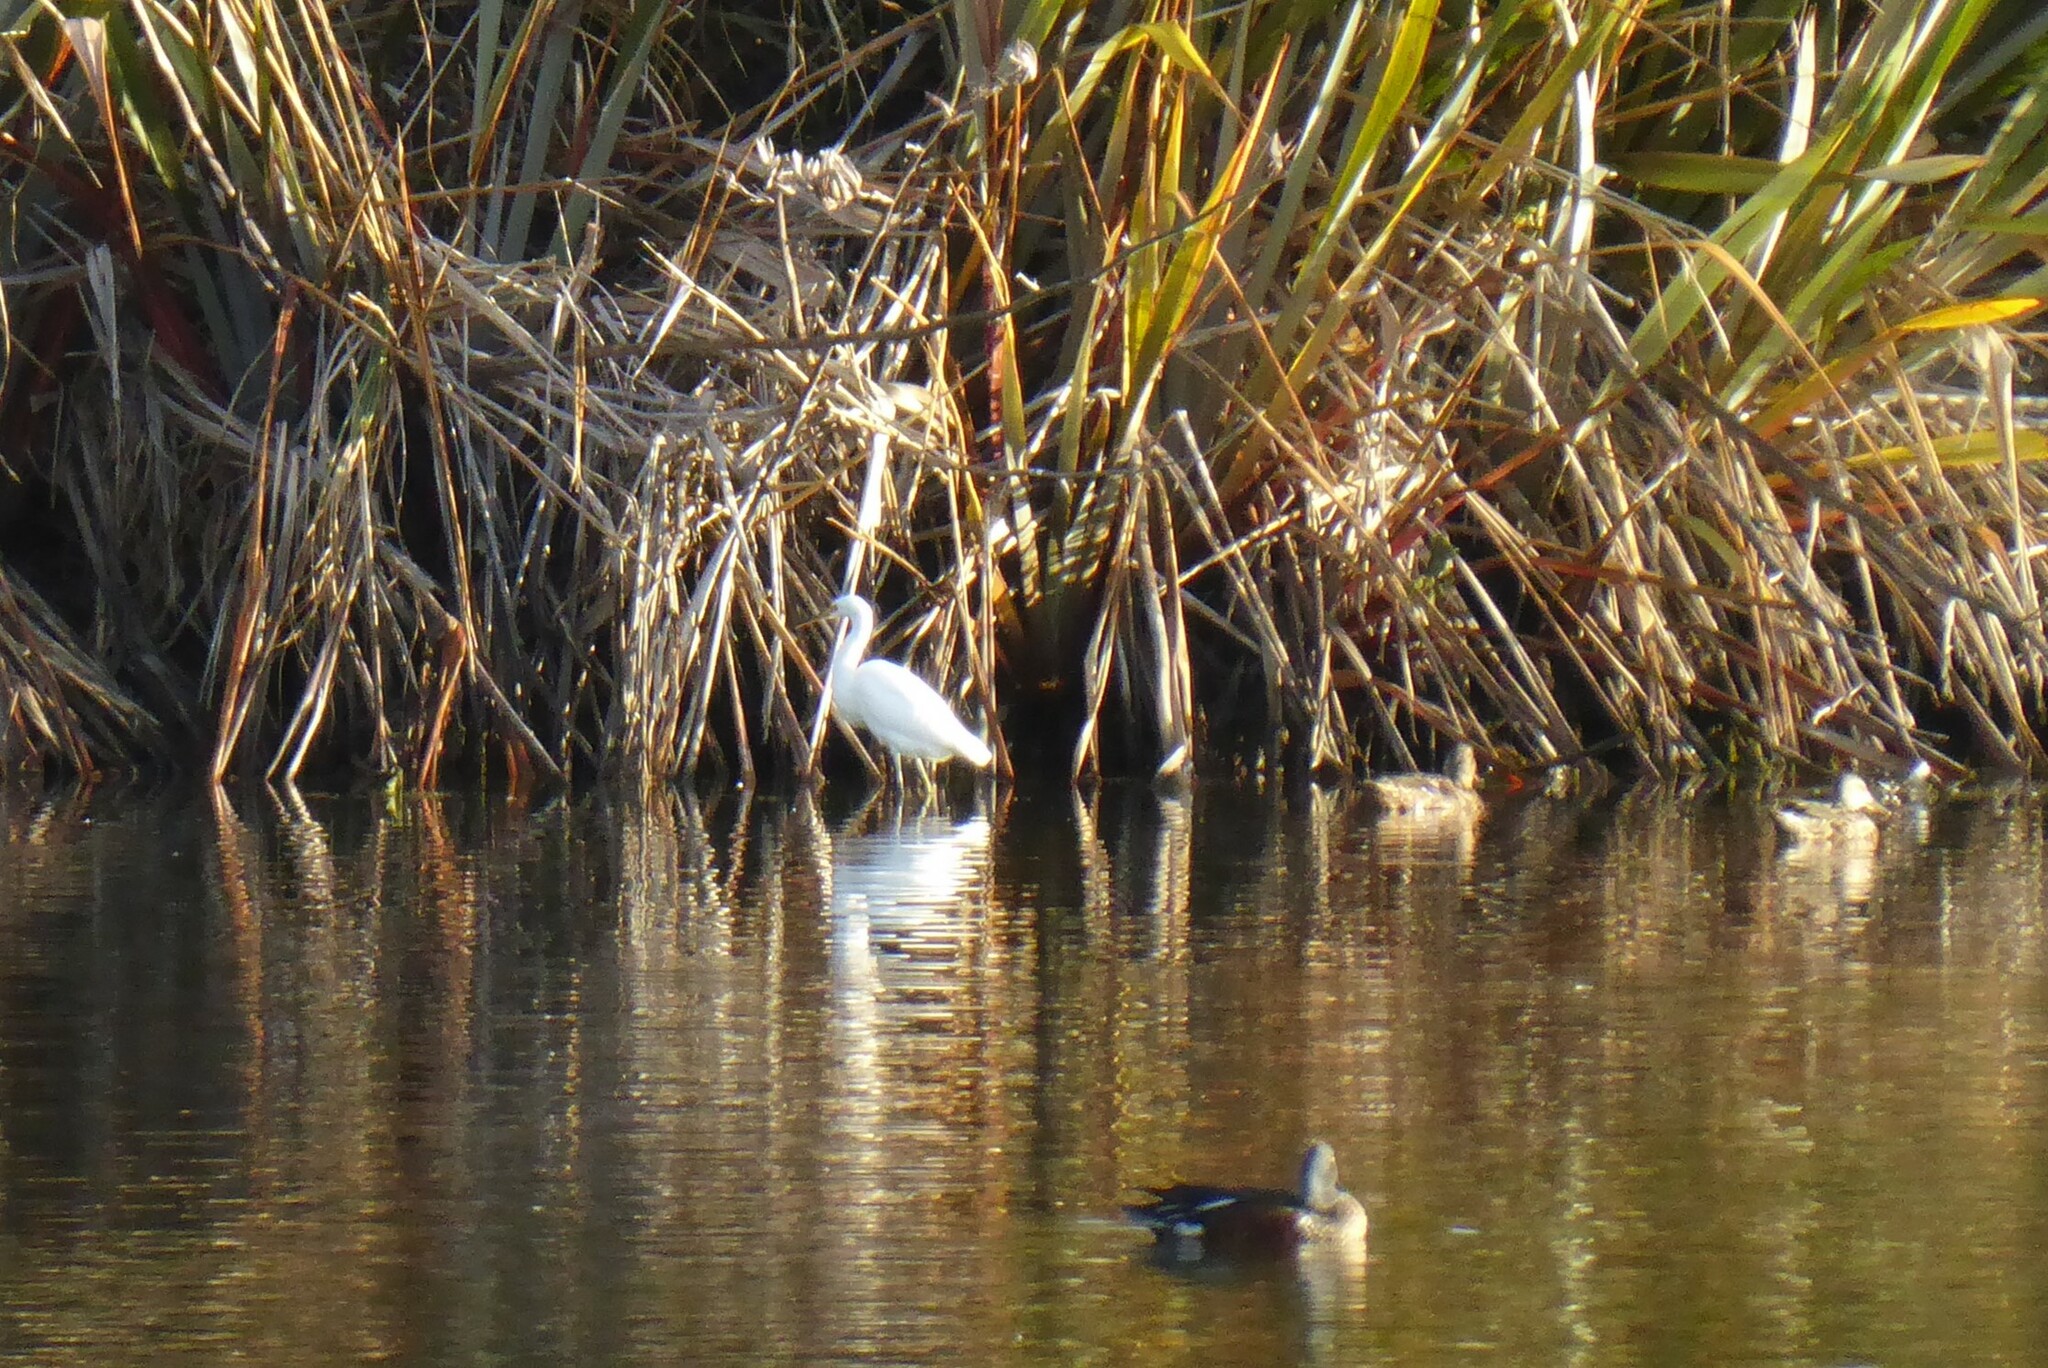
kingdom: Animalia
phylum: Chordata
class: Aves
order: Pelecaniformes
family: Ardeidae
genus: Egretta
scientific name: Egretta garzetta
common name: Little egret
